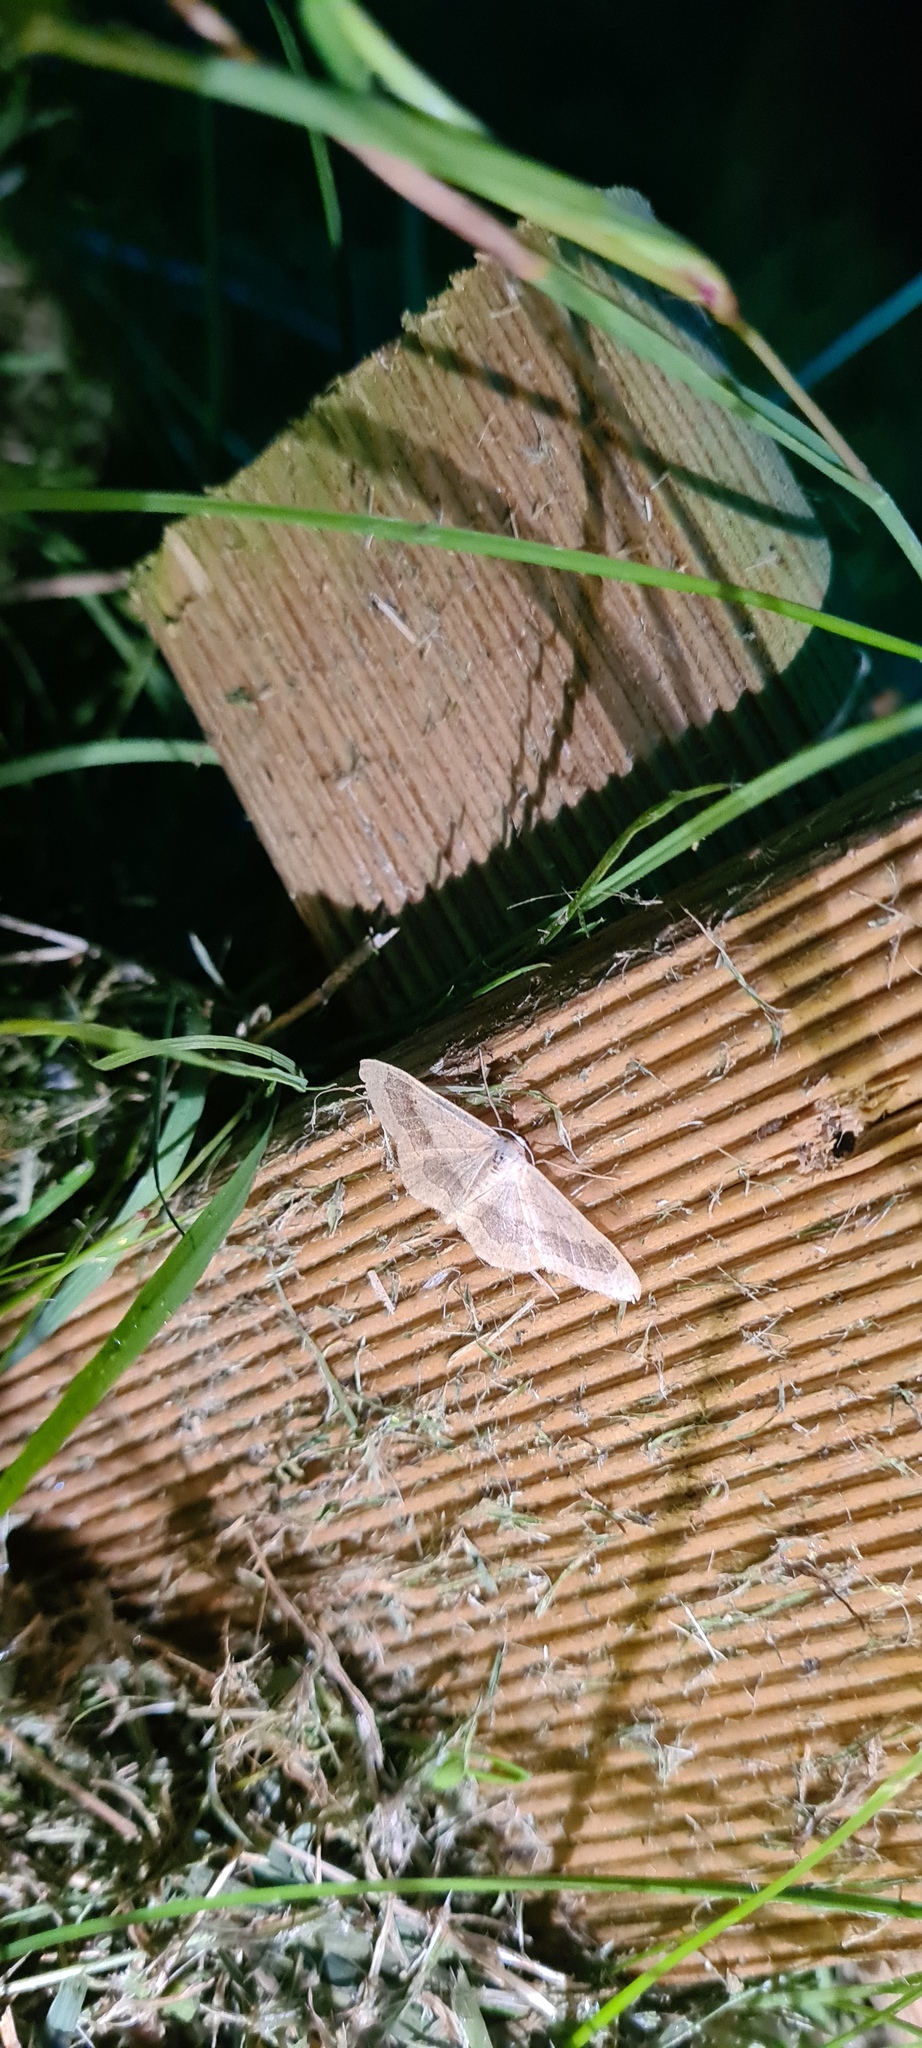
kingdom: Animalia
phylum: Arthropoda
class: Insecta
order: Lepidoptera
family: Geometridae
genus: Idaea
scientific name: Idaea aversata
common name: Riband wave
